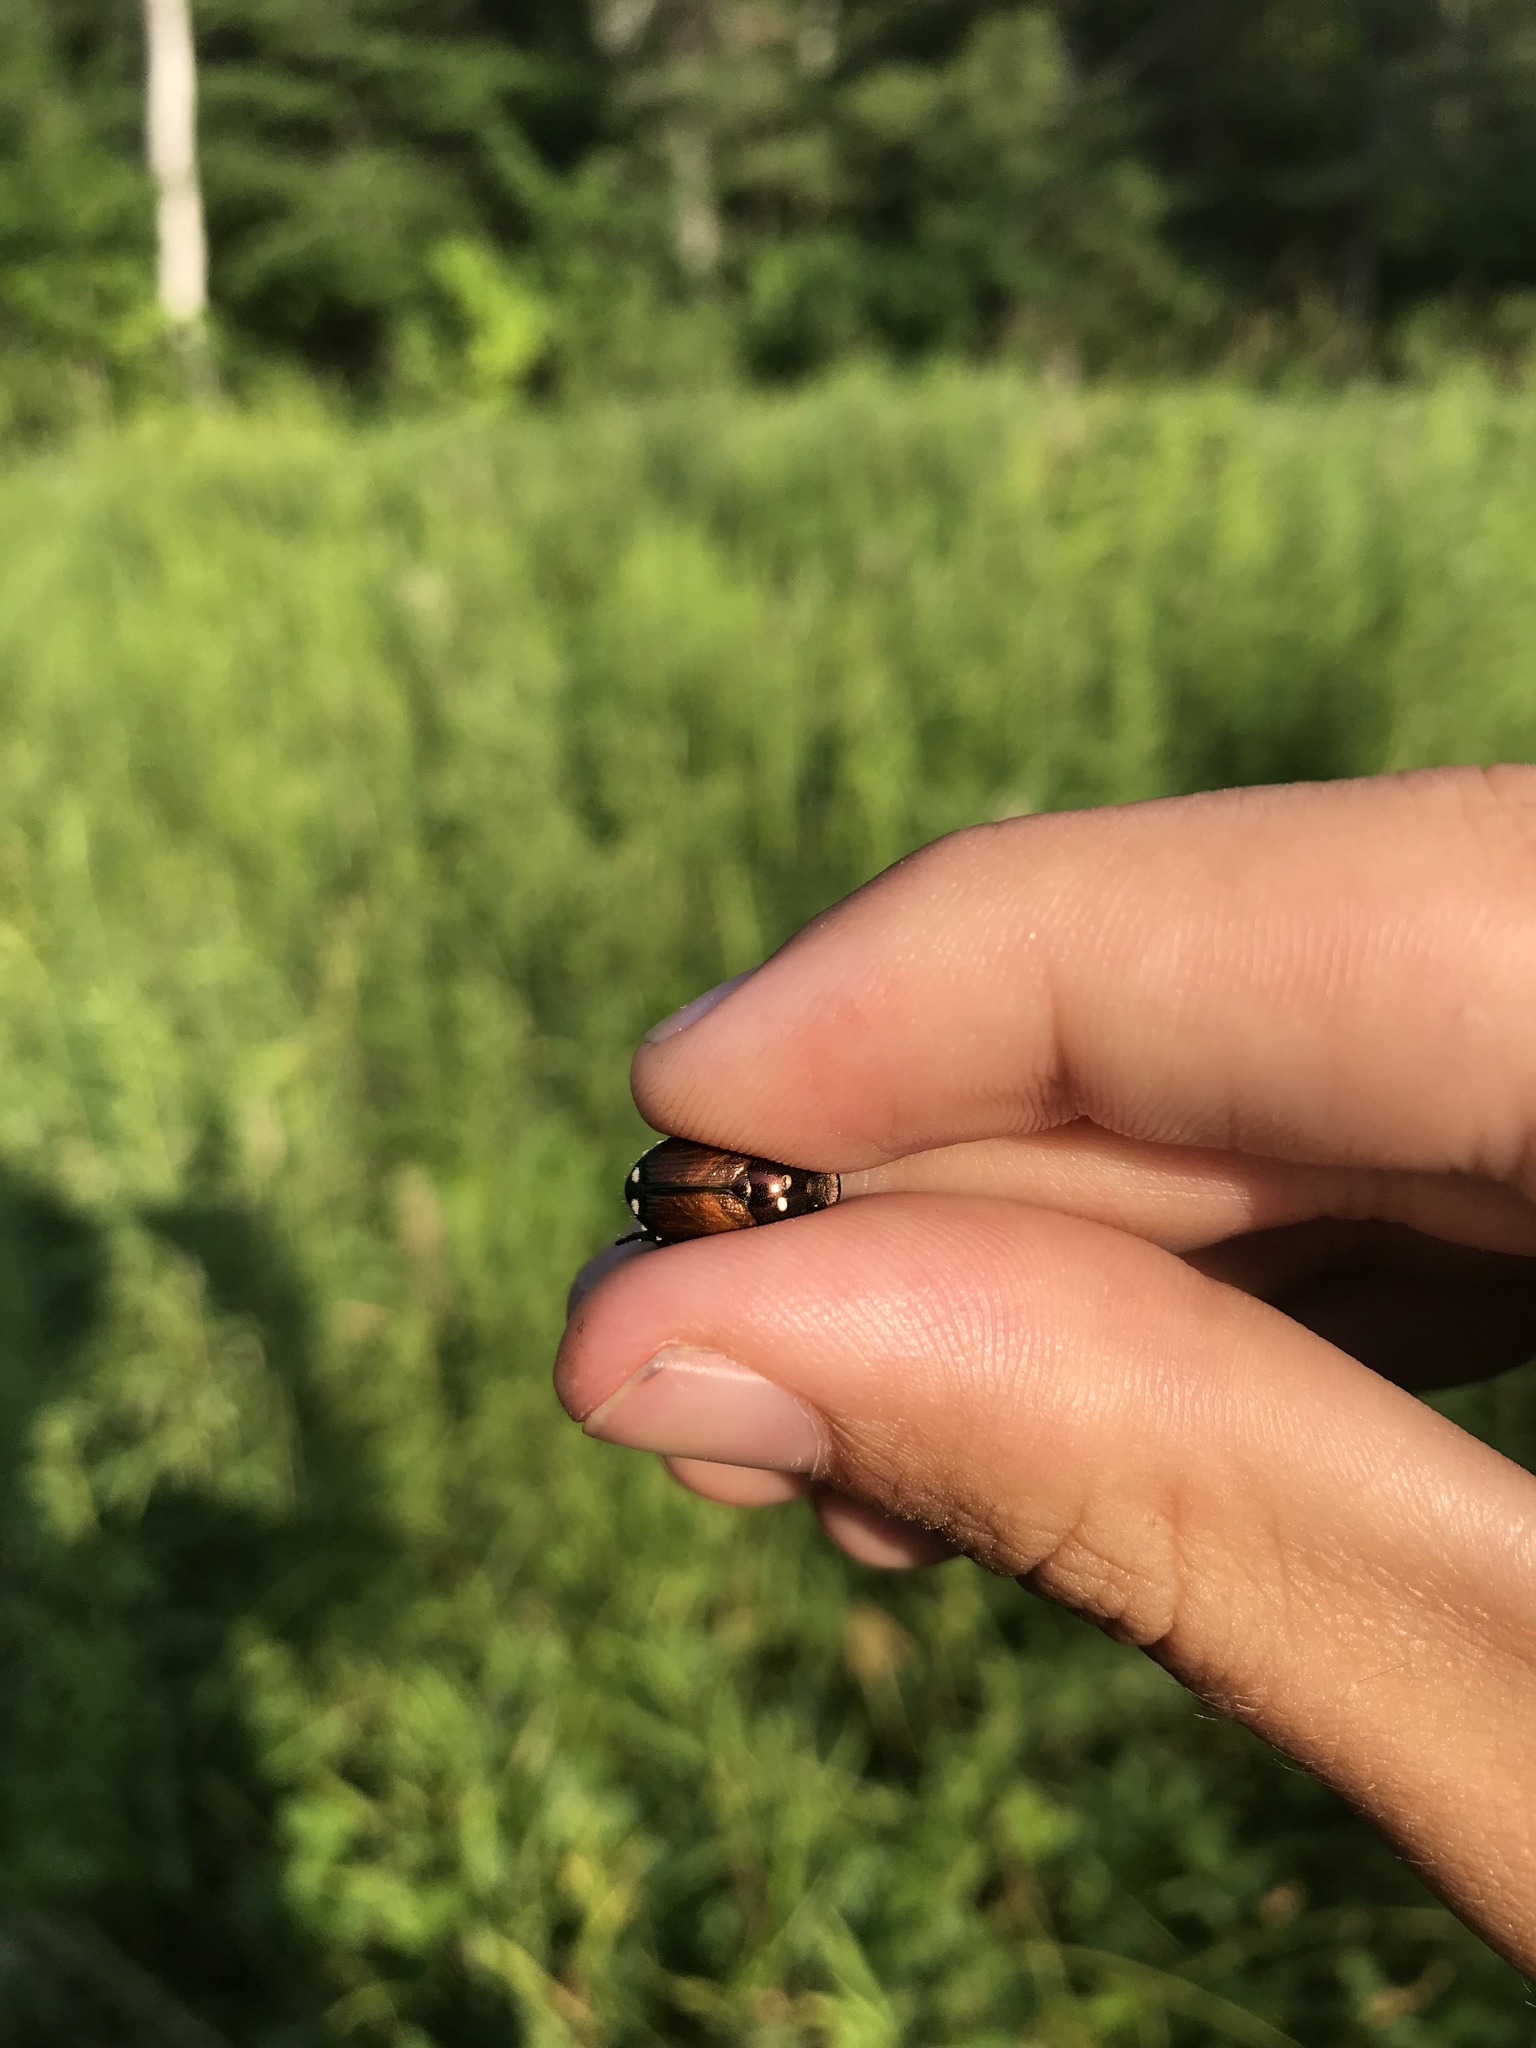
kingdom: Animalia
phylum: Arthropoda
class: Insecta
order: Coleoptera
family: Scarabaeidae
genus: Popillia
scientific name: Popillia japonica
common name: Japanese beetle
